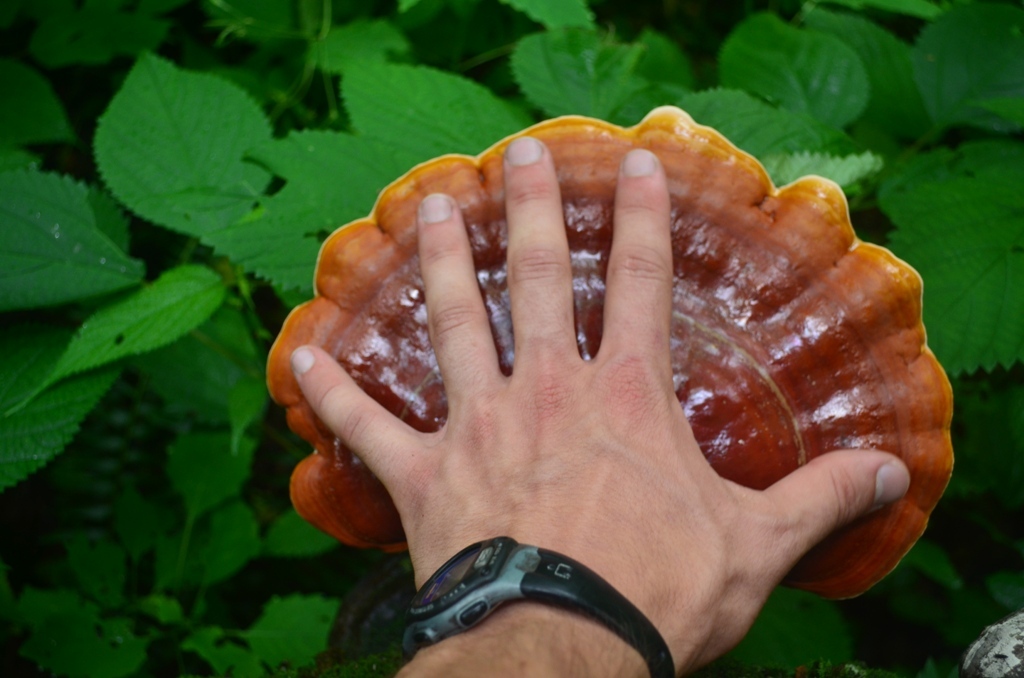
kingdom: Fungi
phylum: Basidiomycota
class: Agaricomycetes
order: Polyporales
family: Polyporaceae
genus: Ganoderma
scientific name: Ganoderma tsugae
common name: Hemlock varnish shelf
